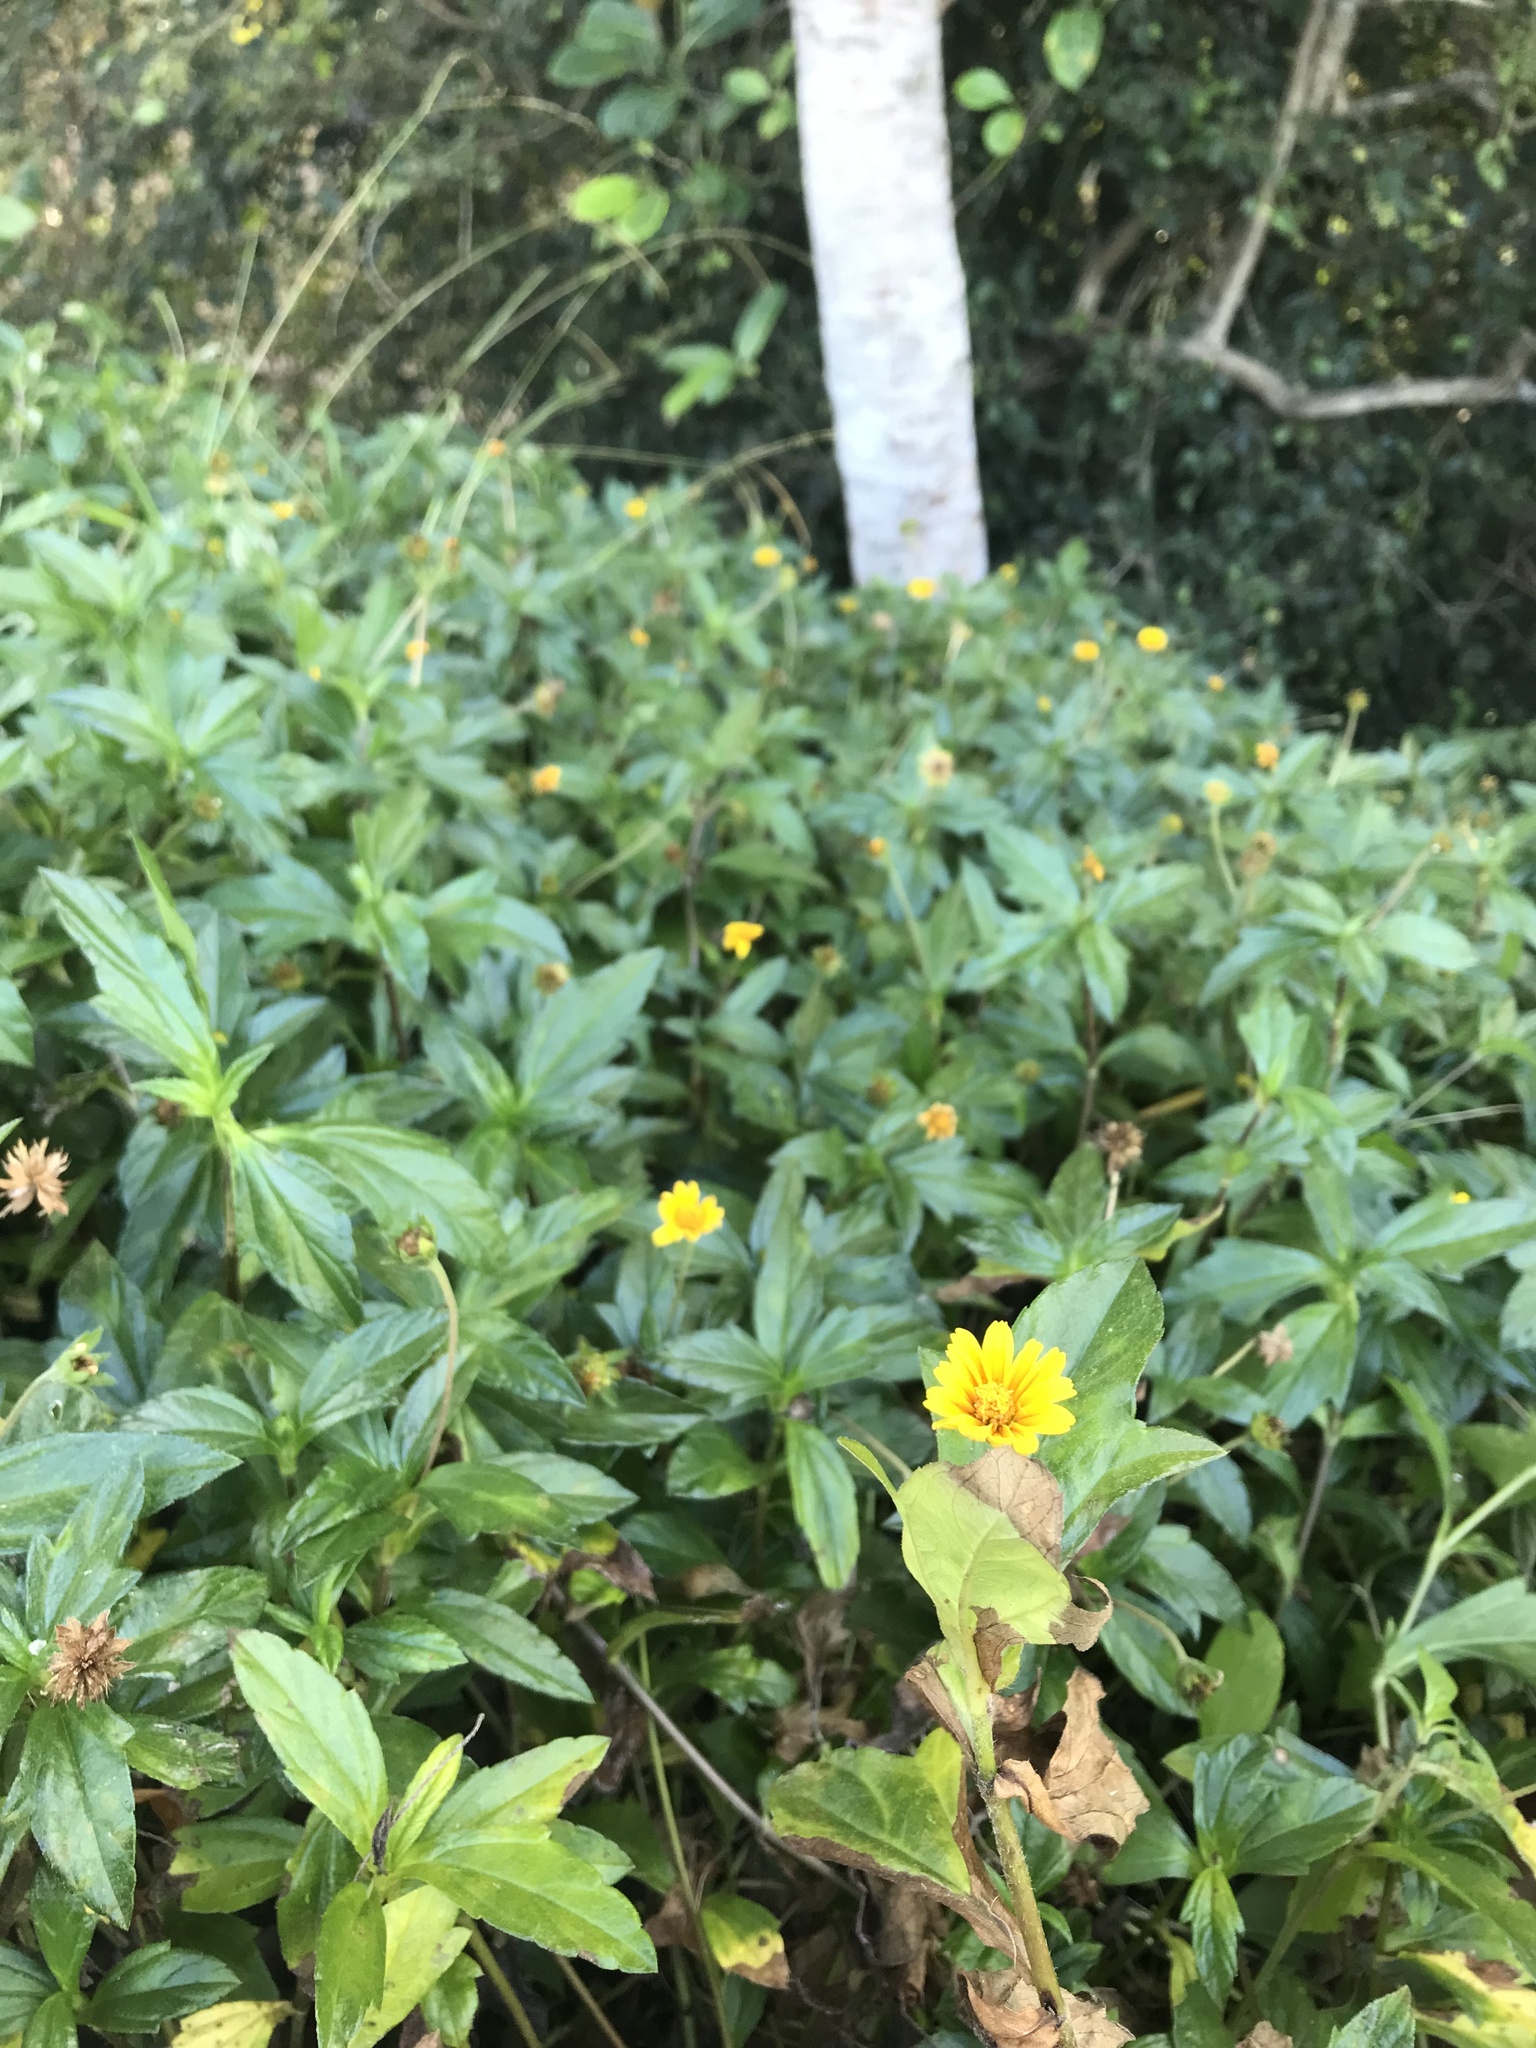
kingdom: Plantae
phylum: Tracheophyta
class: Magnoliopsida
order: Asterales
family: Asteraceae
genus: Sphagneticola
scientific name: Sphagneticola trilobata
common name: Bay biscayne creeping-oxeye
